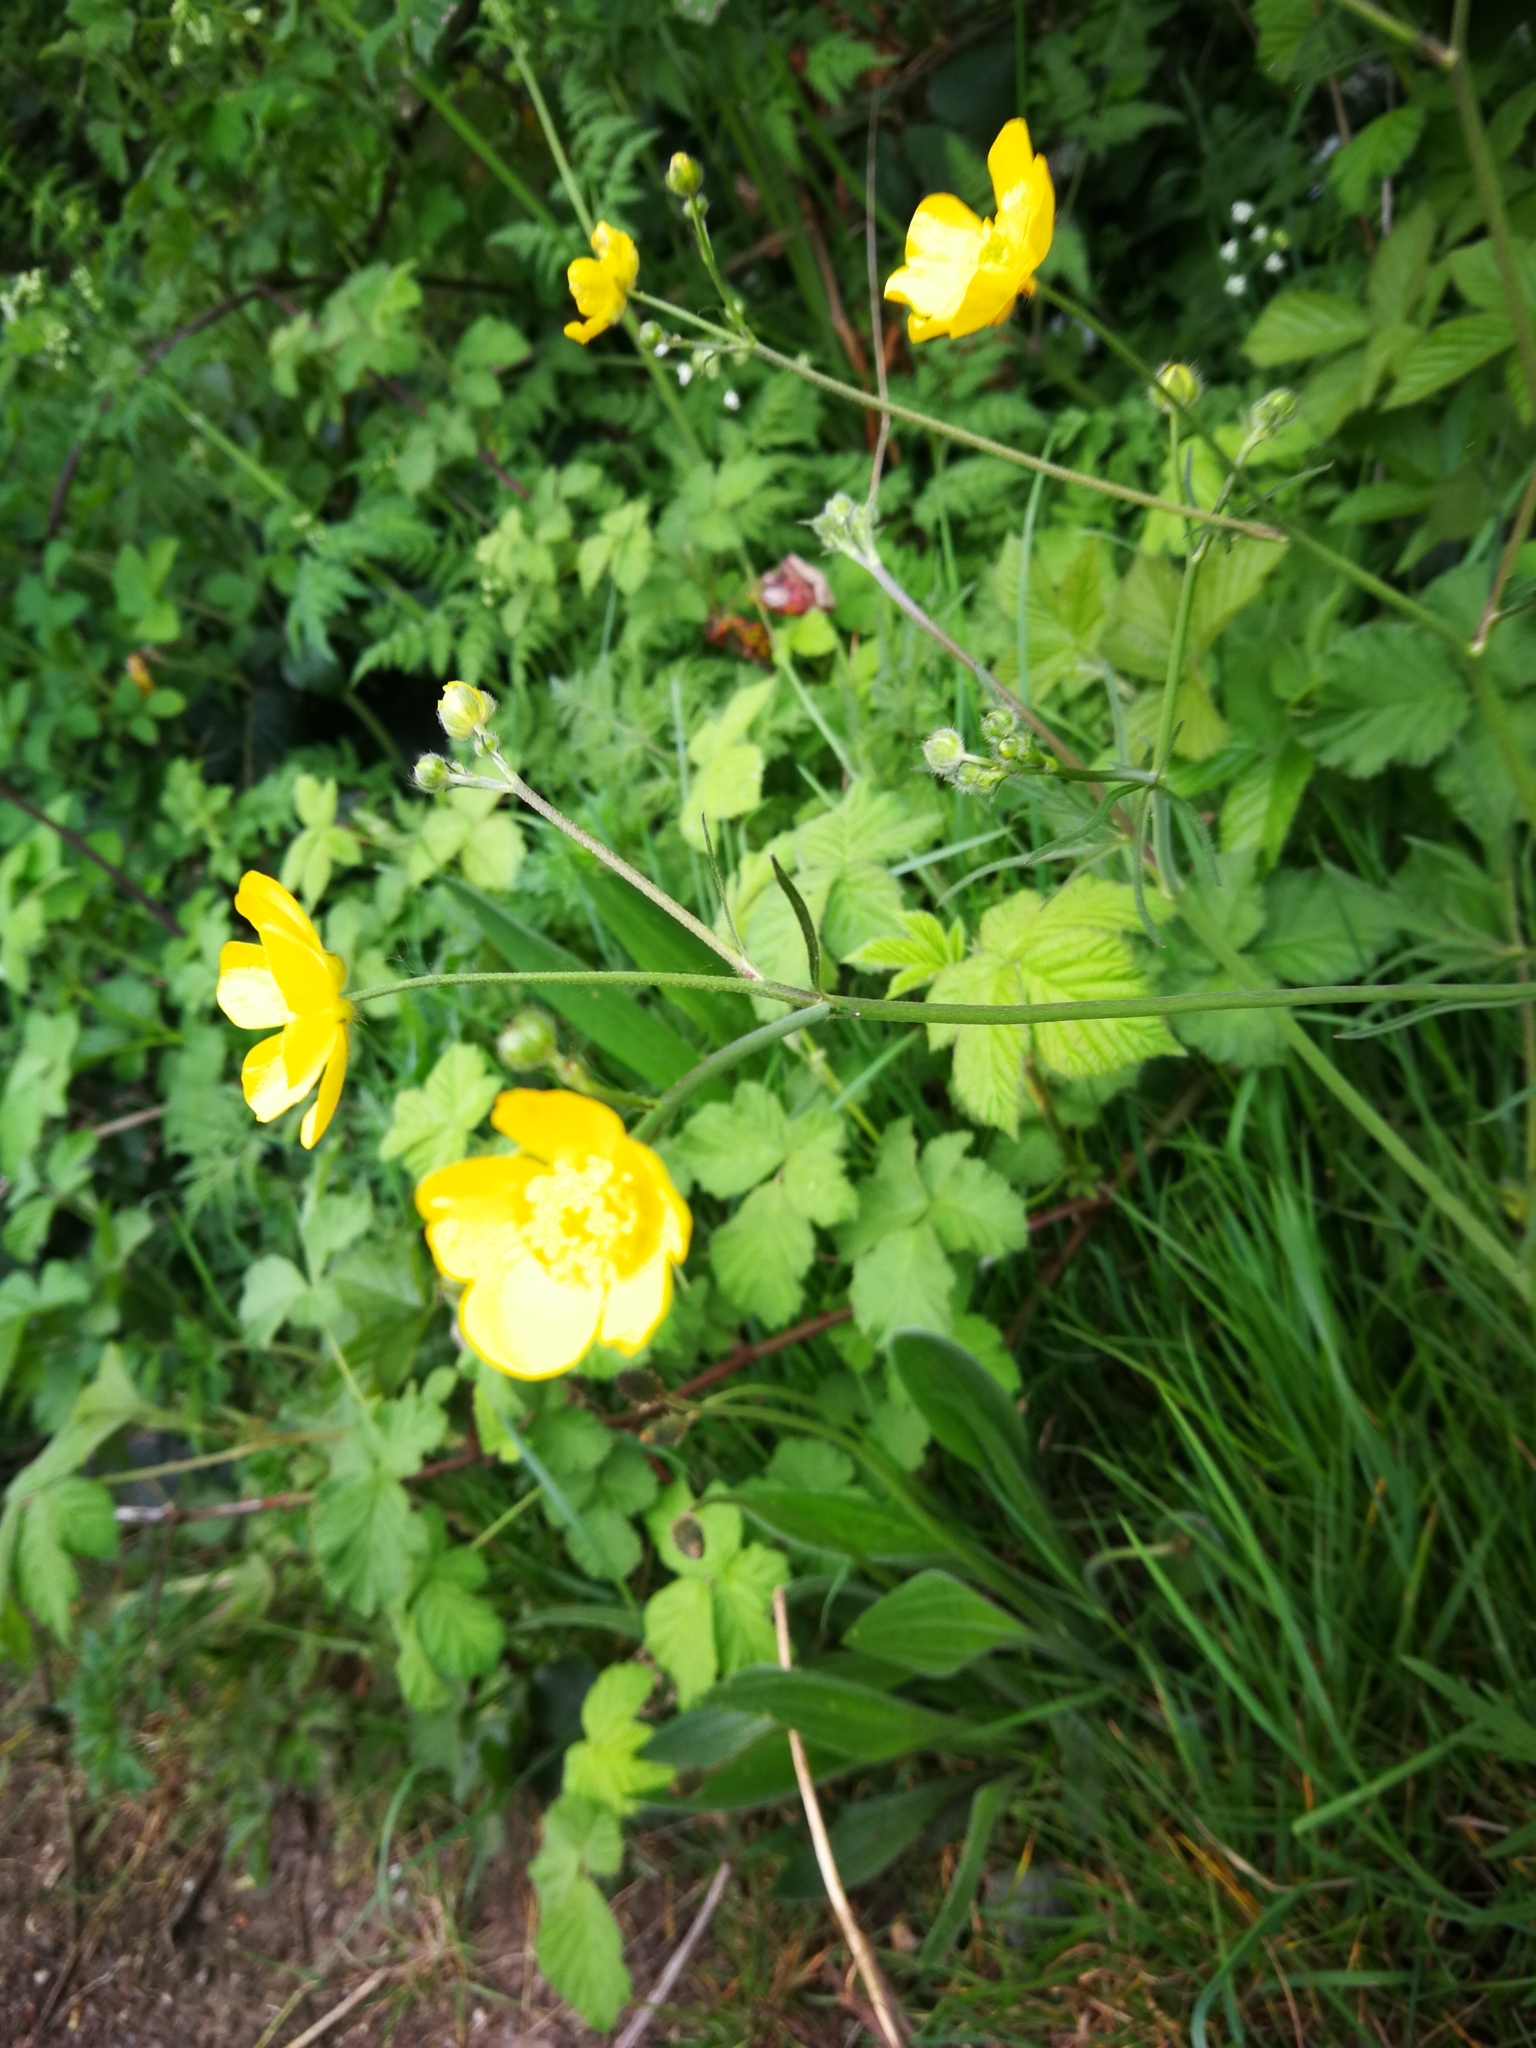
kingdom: Plantae
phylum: Tracheophyta
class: Magnoliopsida
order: Ranunculales
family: Ranunculaceae
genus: Ranunculus
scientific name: Ranunculus acris
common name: Meadow buttercup
